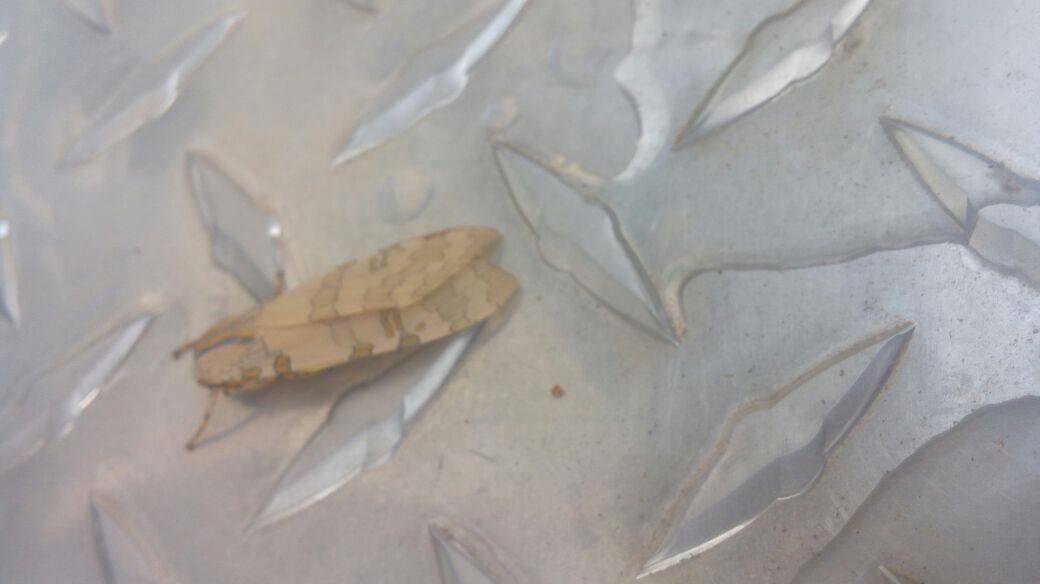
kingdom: Animalia
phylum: Arthropoda
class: Insecta
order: Lepidoptera
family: Erebidae
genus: Halysidota
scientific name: Halysidota schausi
